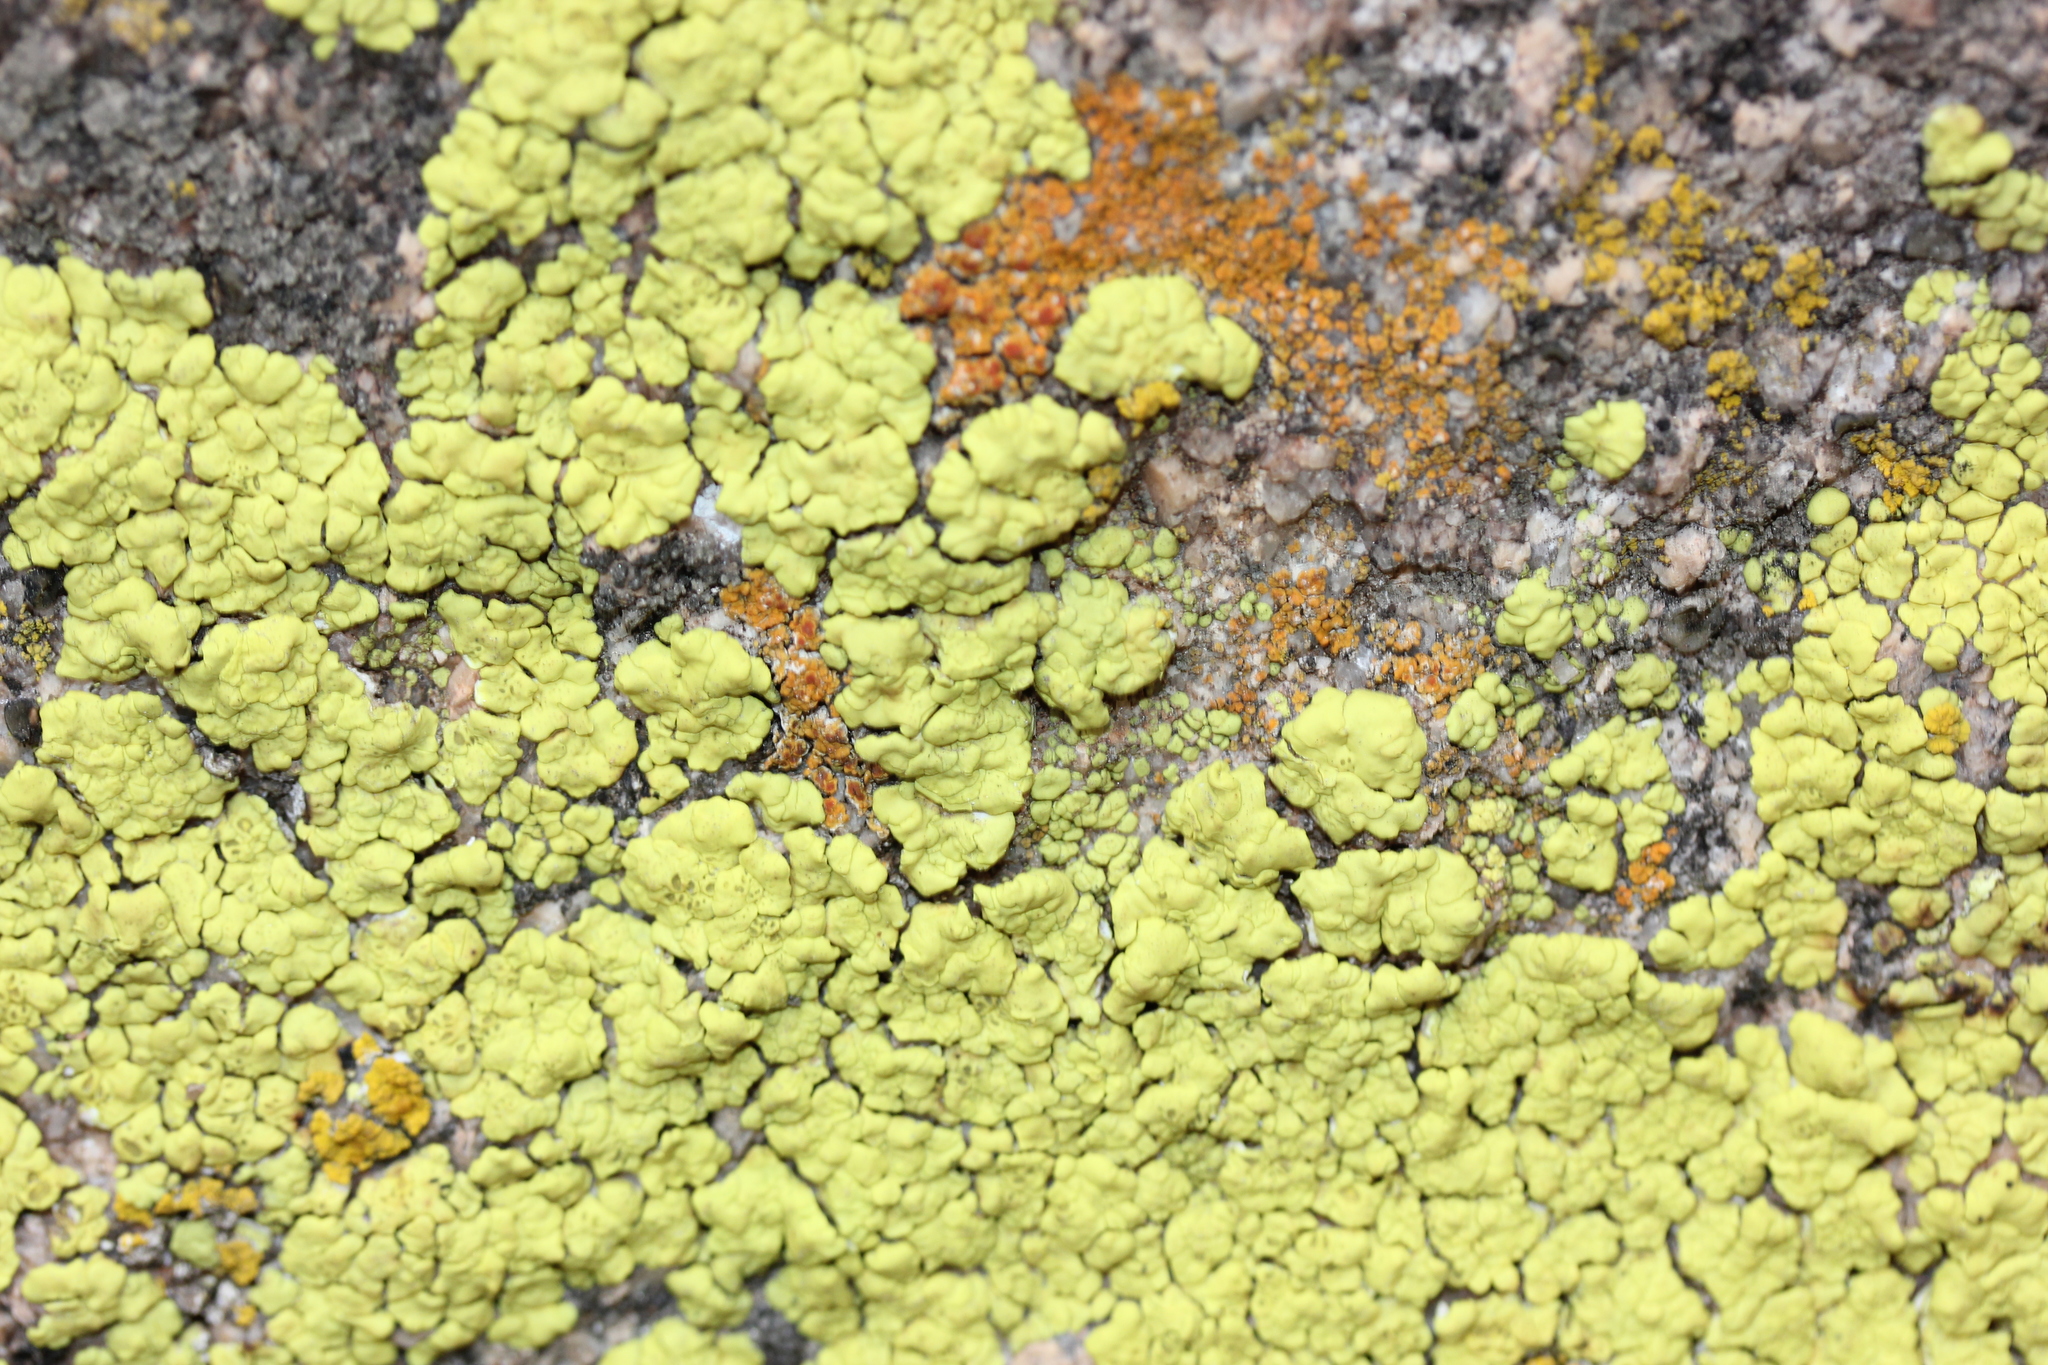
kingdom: Fungi
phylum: Ascomycota
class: Lecanoromycetes
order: Acarosporales
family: Acarosporaceae
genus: Acarospora
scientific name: Acarospora socialis
